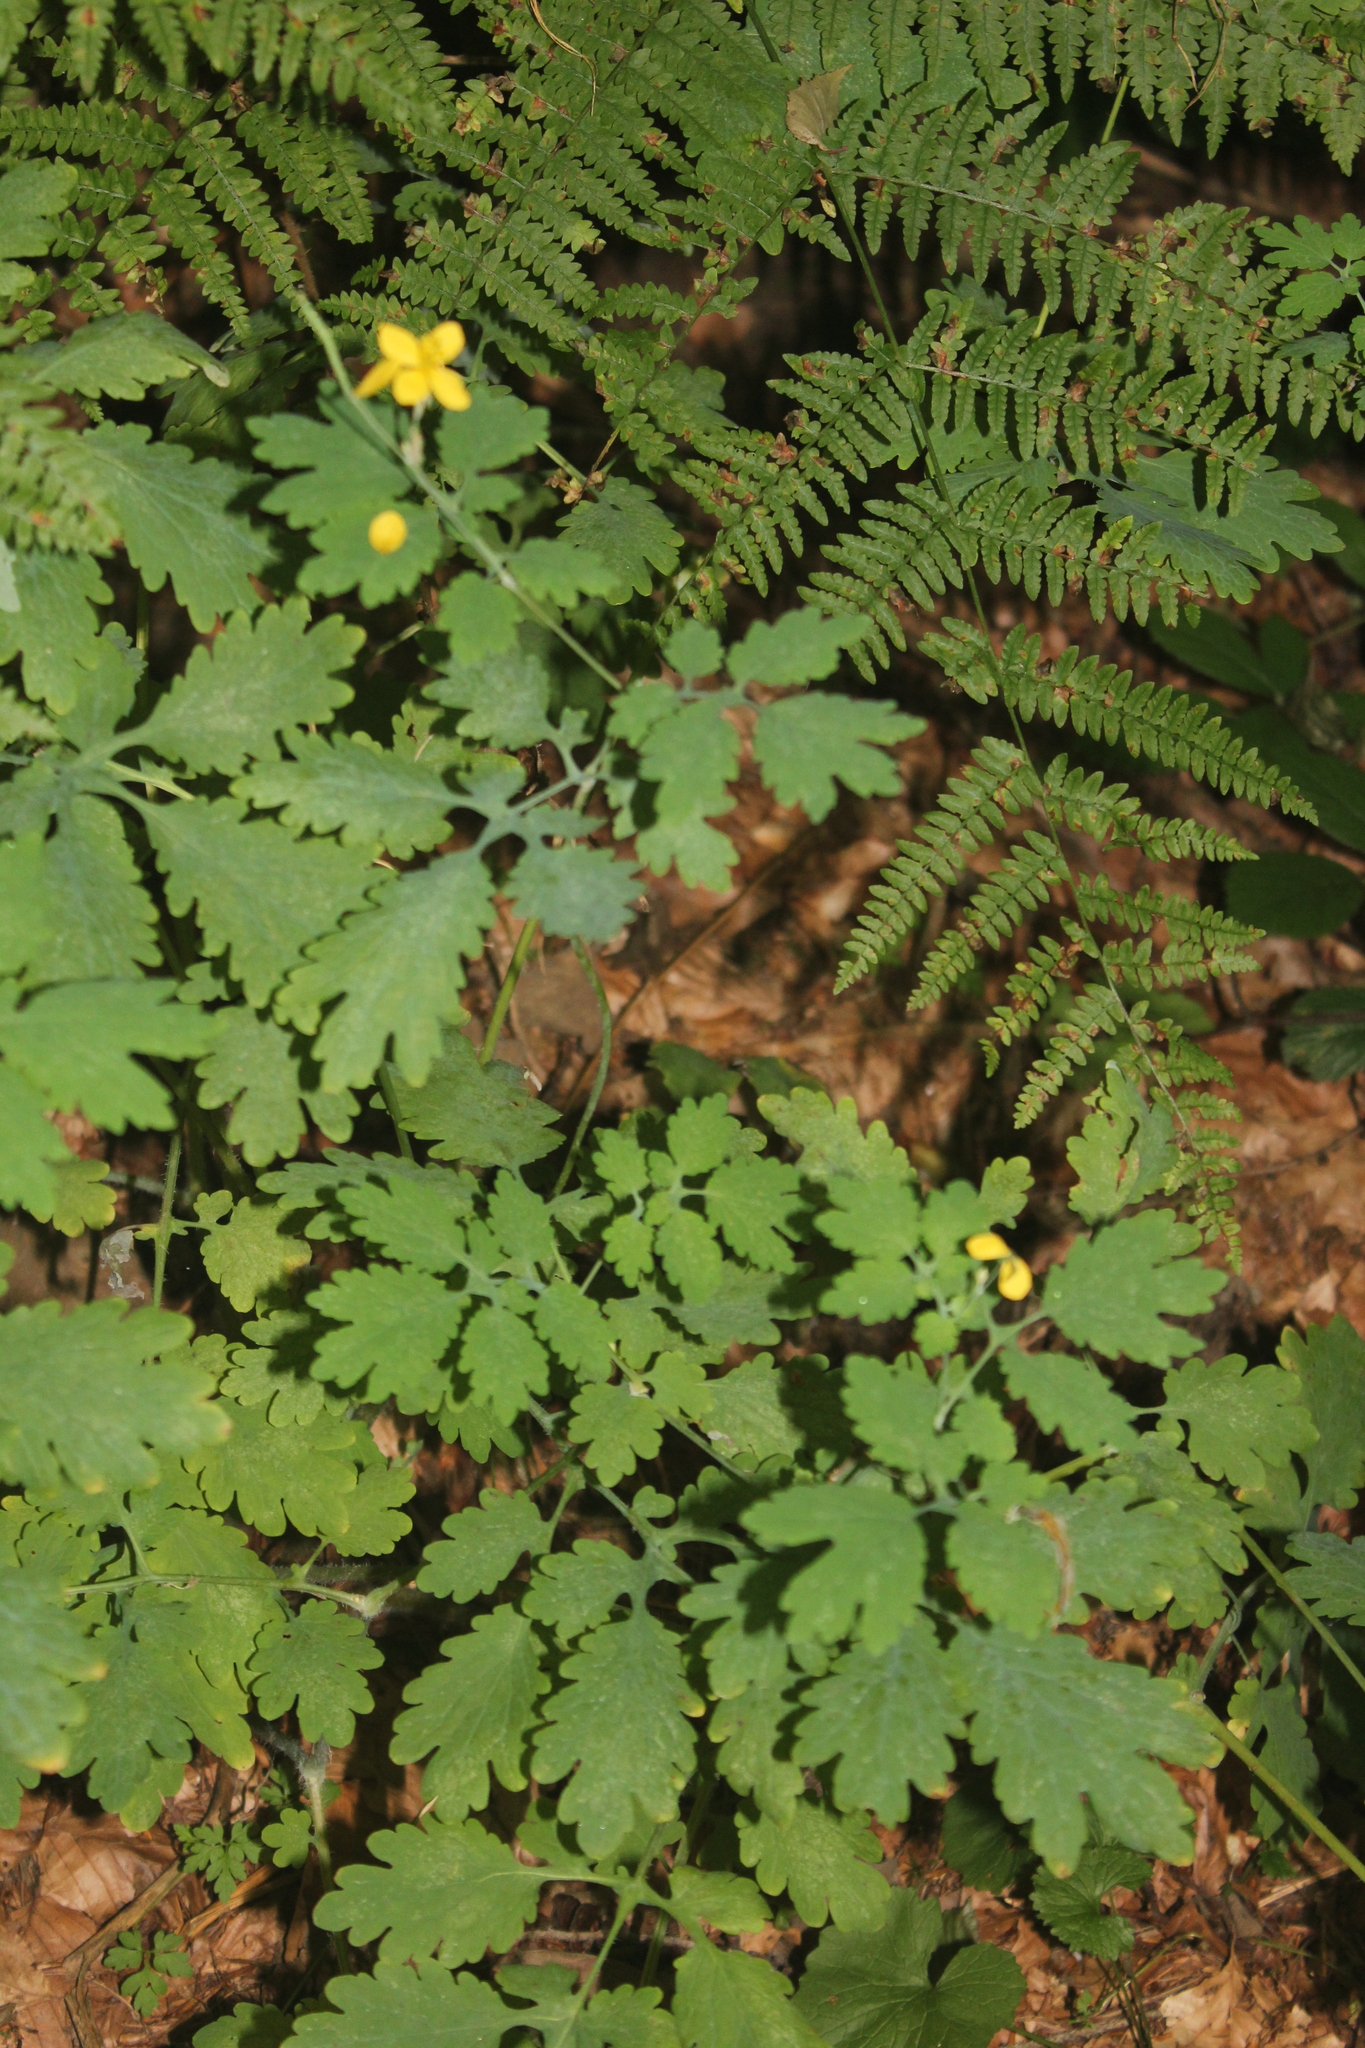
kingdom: Plantae
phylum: Tracheophyta
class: Magnoliopsida
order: Ranunculales
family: Papaveraceae
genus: Chelidonium
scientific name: Chelidonium majus
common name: Greater celandine
